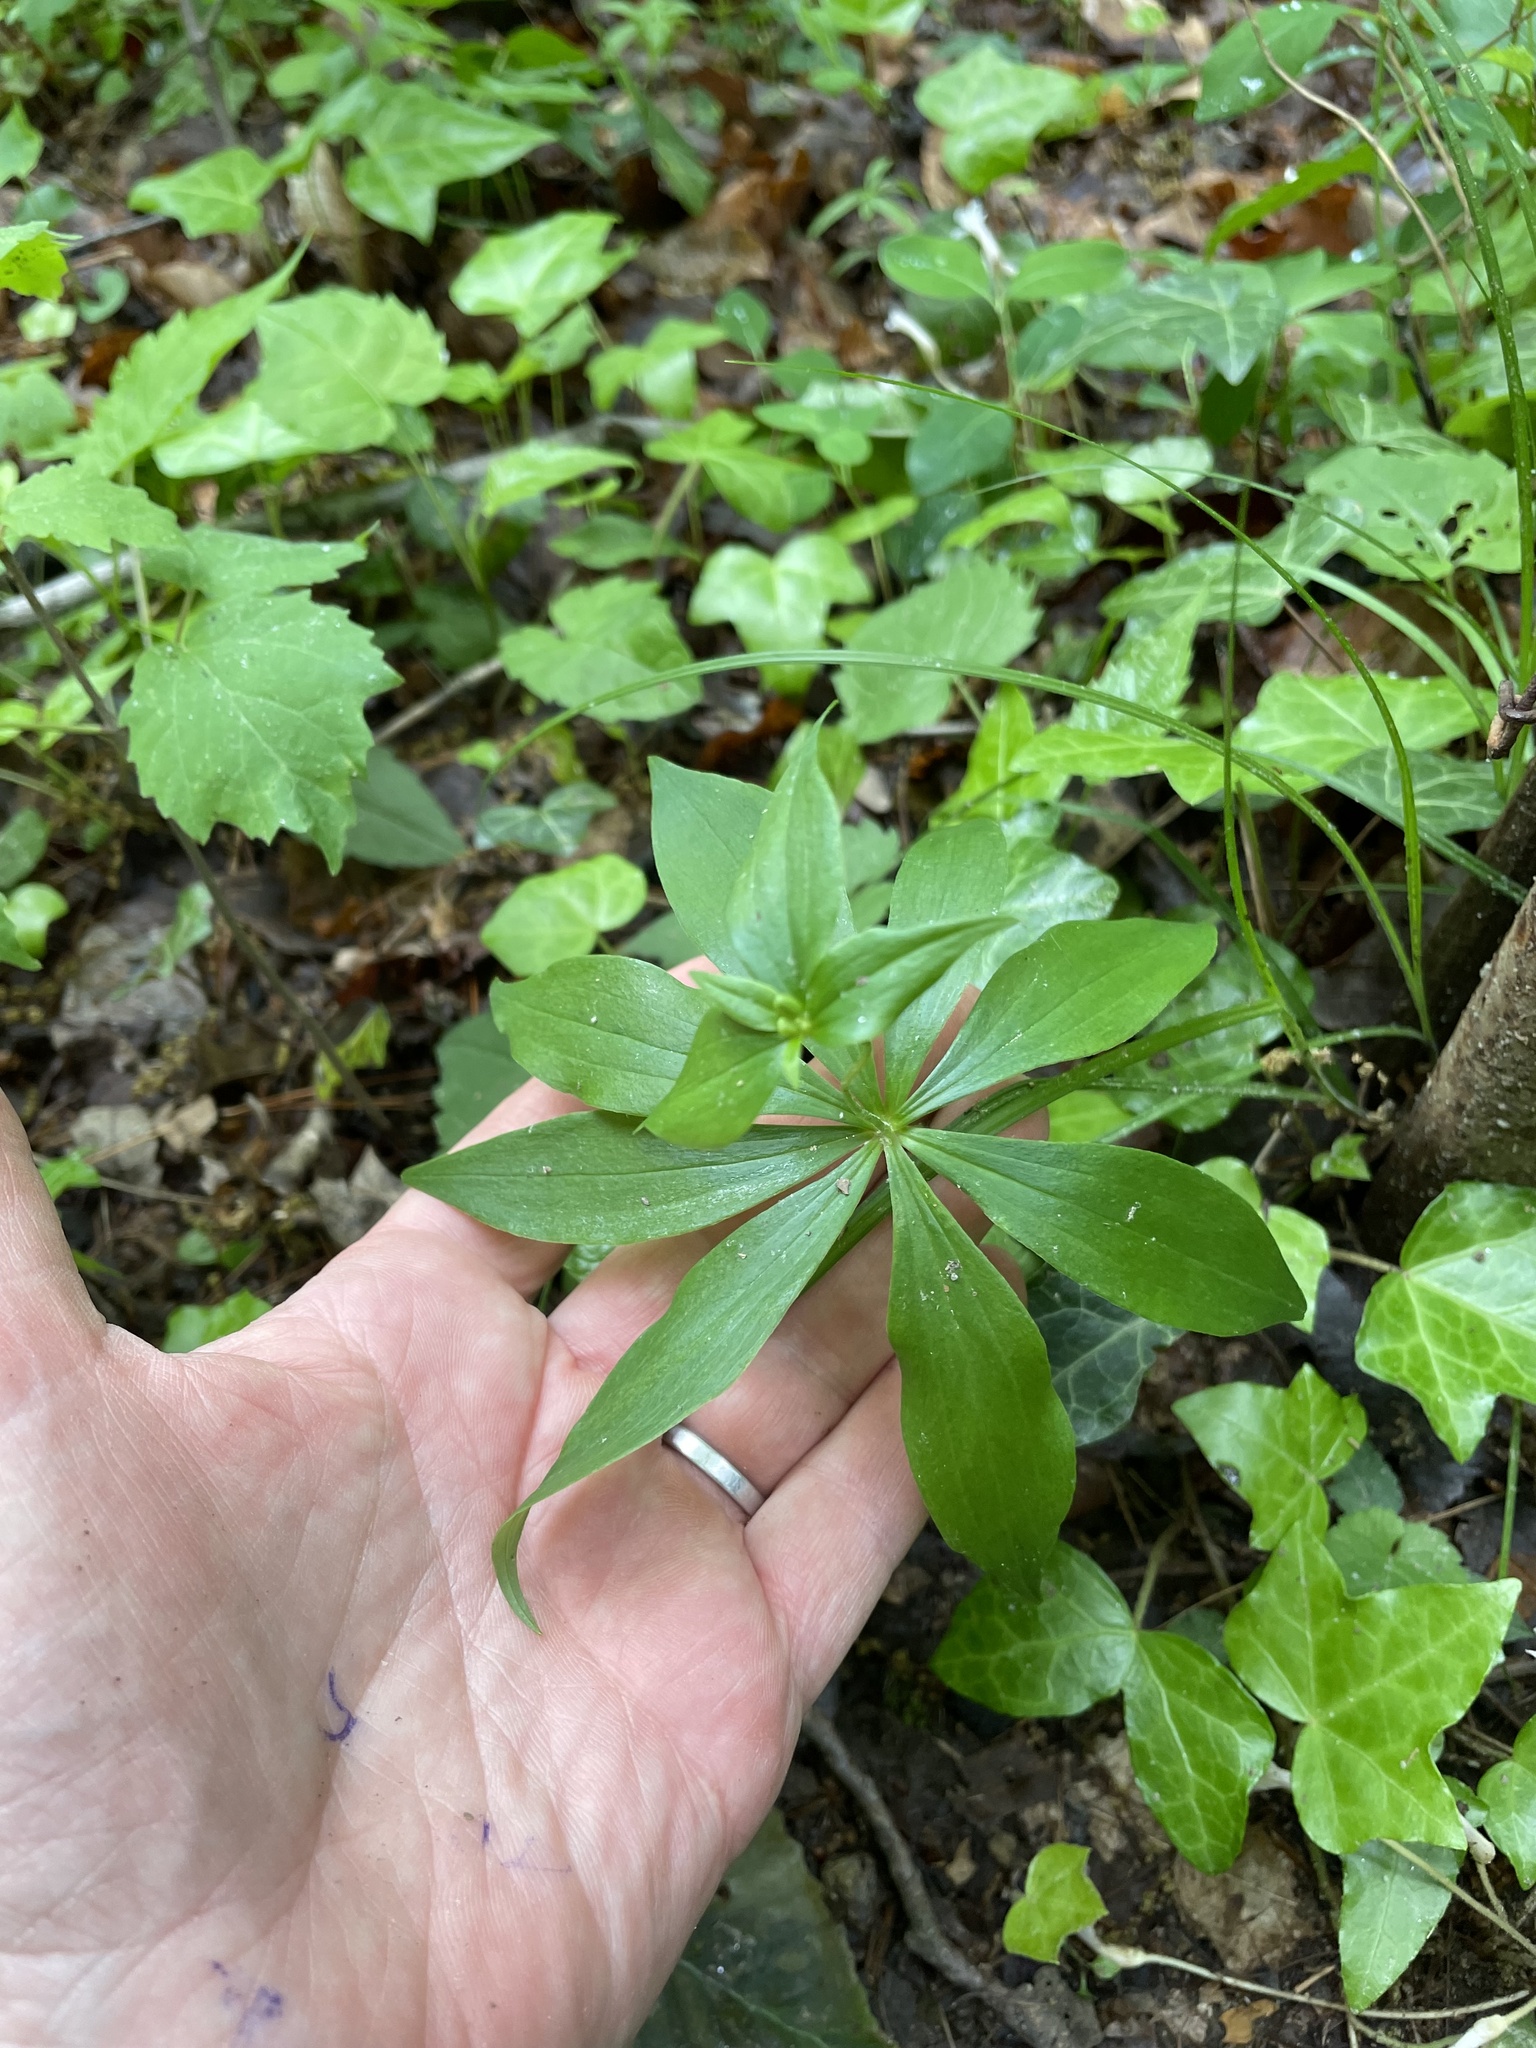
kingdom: Plantae
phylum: Tracheophyta
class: Liliopsida
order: Liliales
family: Liliaceae
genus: Medeola
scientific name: Medeola virginiana
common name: Indian cucumber-root
